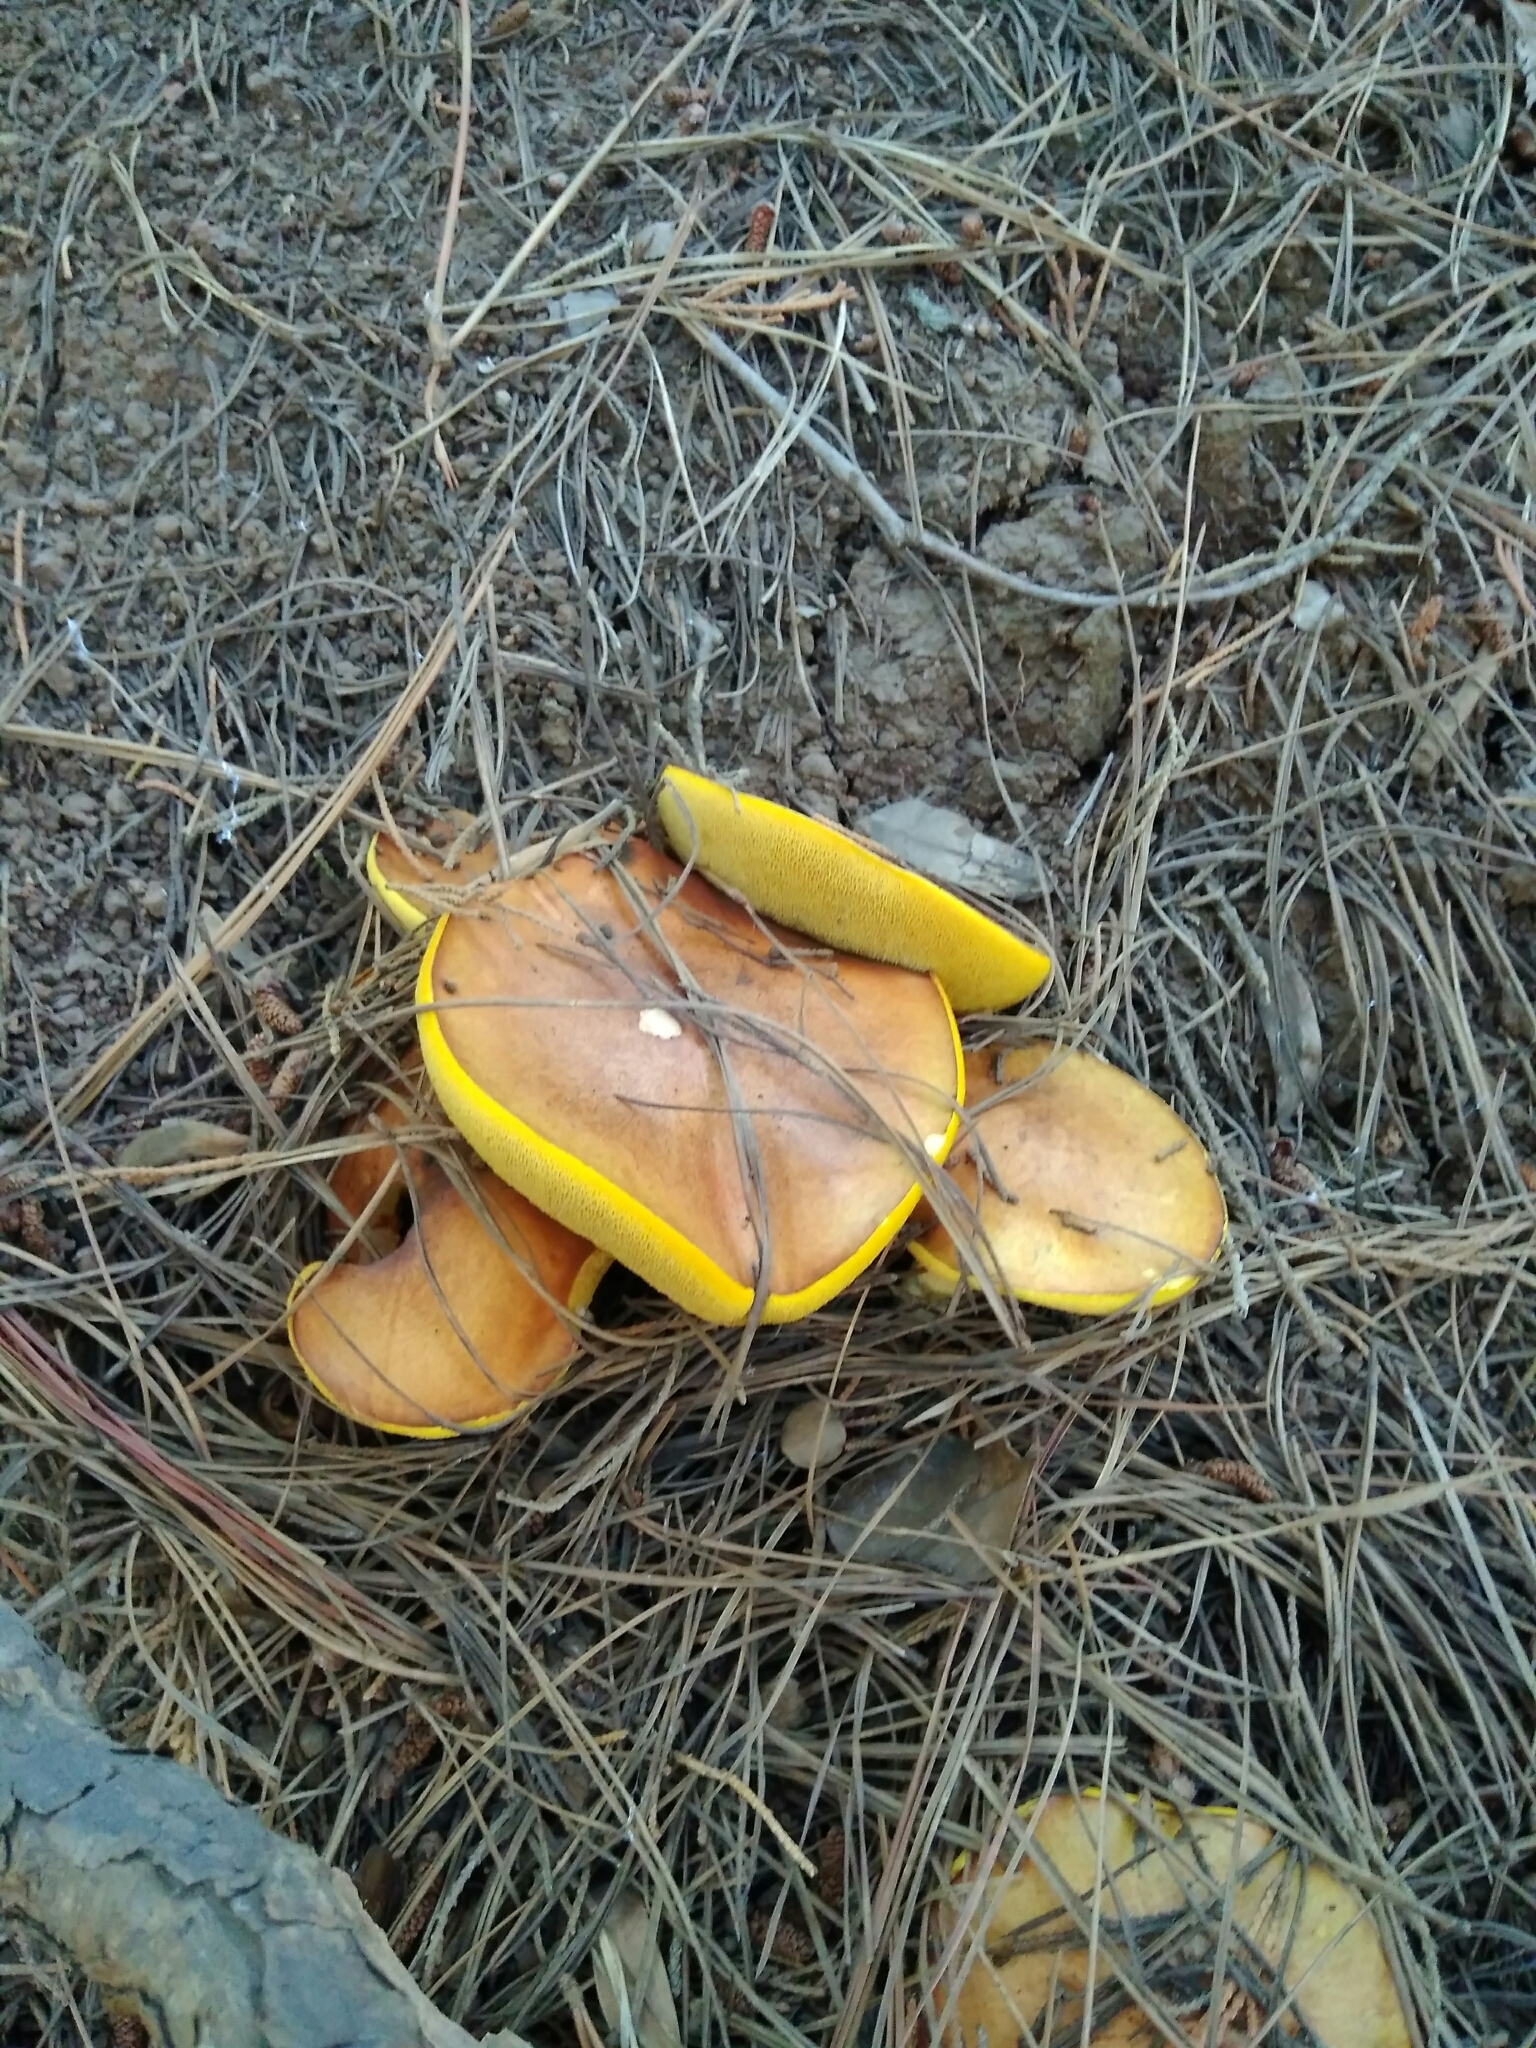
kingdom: Fungi
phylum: Basidiomycota
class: Agaricomycetes
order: Boletales
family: Suillaceae
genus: Suillus
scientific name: Suillus luteus
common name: Slippery jack
